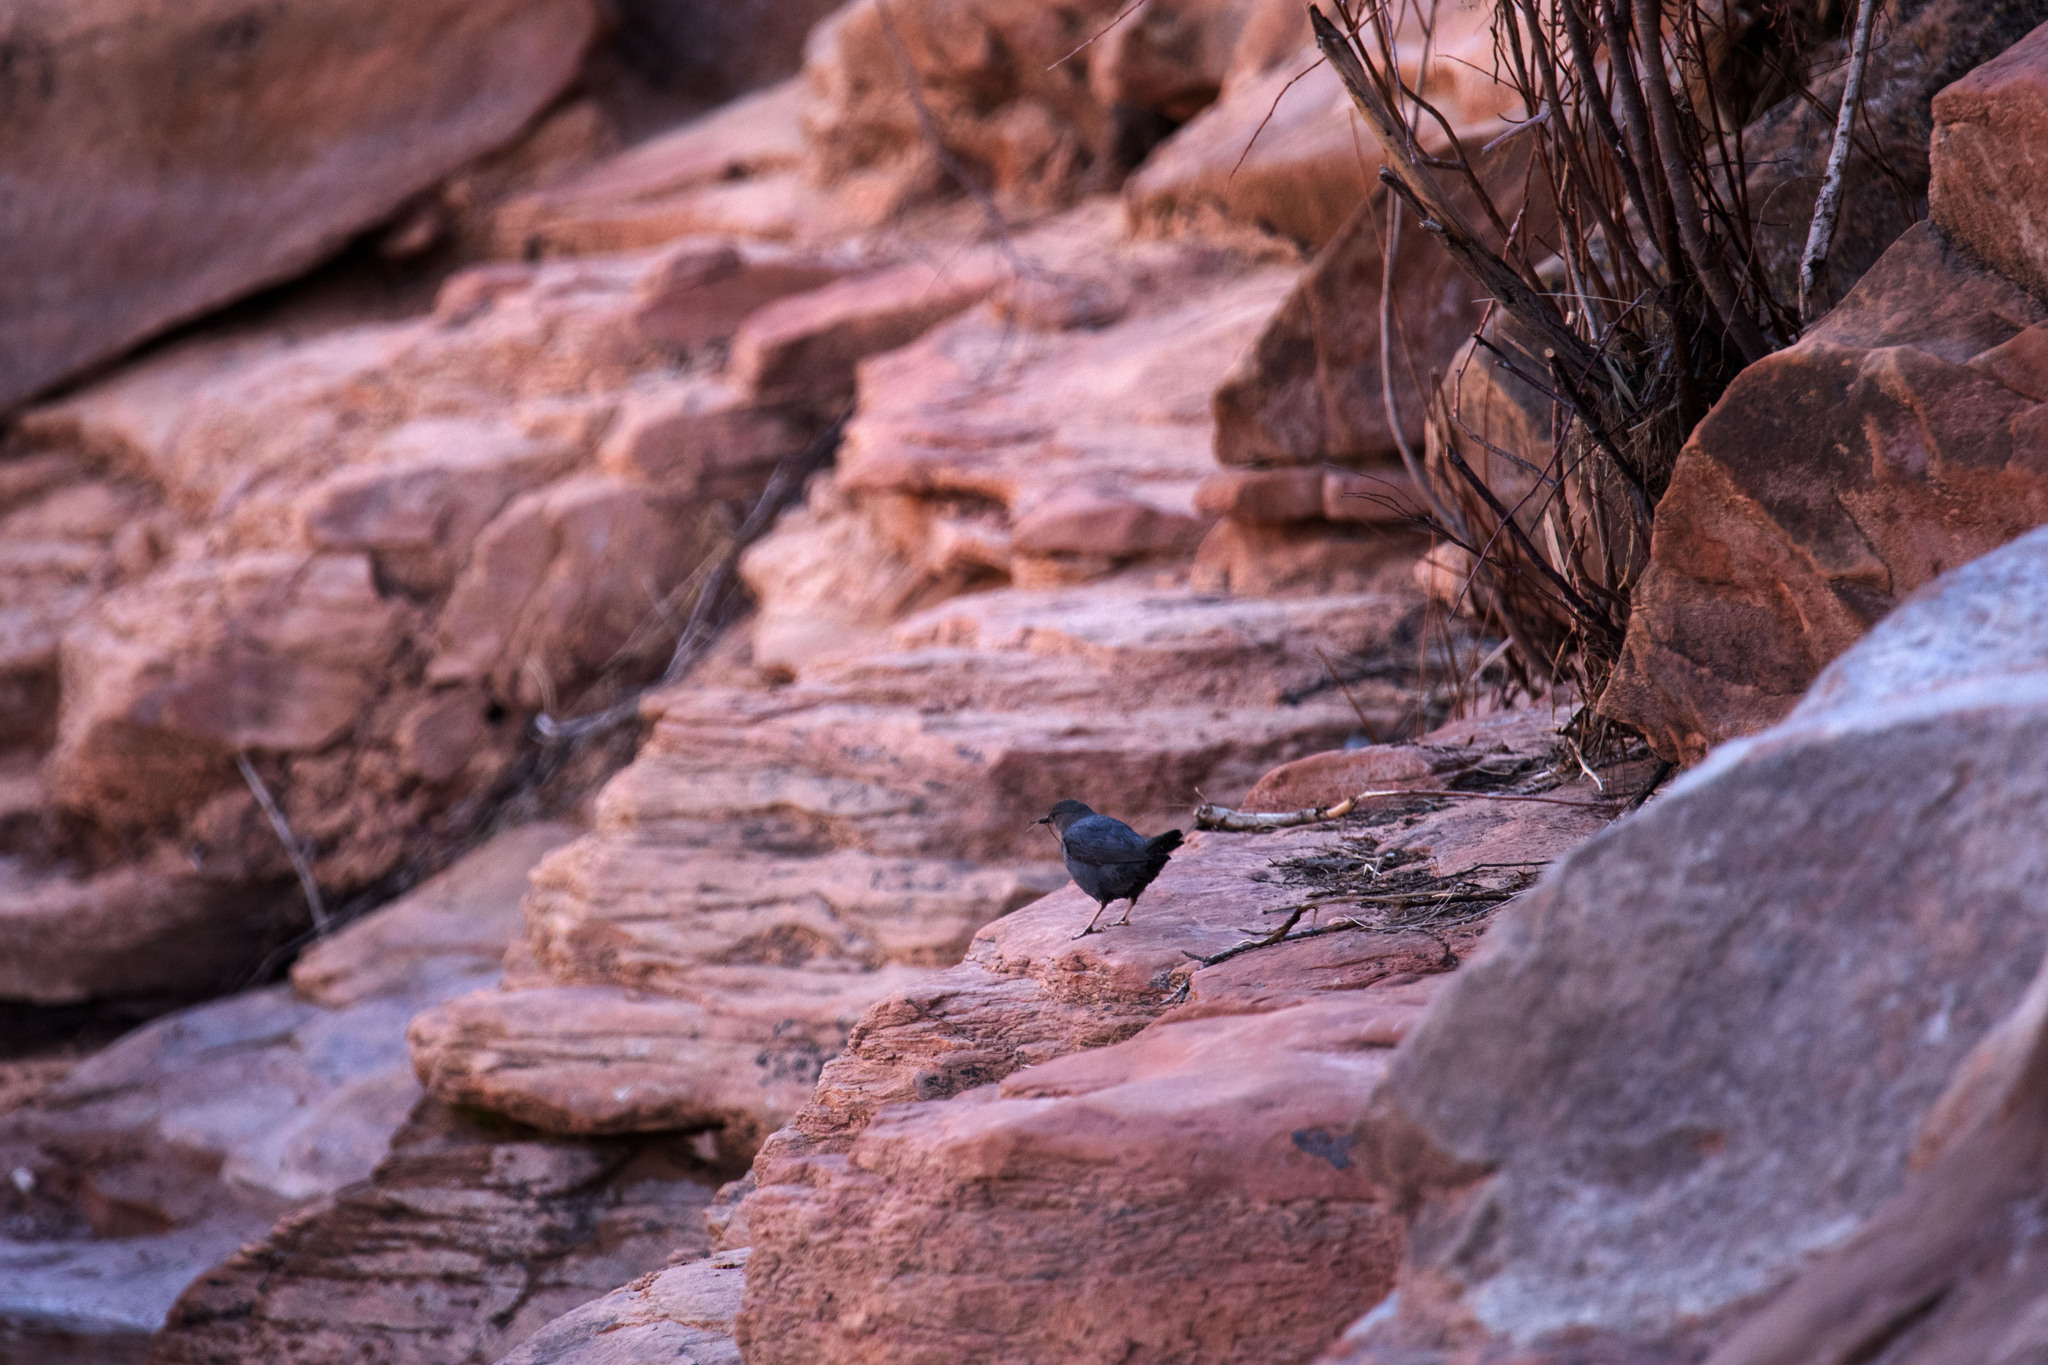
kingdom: Animalia
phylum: Chordata
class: Aves
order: Passeriformes
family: Cinclidae
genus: Cinclus
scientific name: Cinclus mexicanus
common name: American dipper
